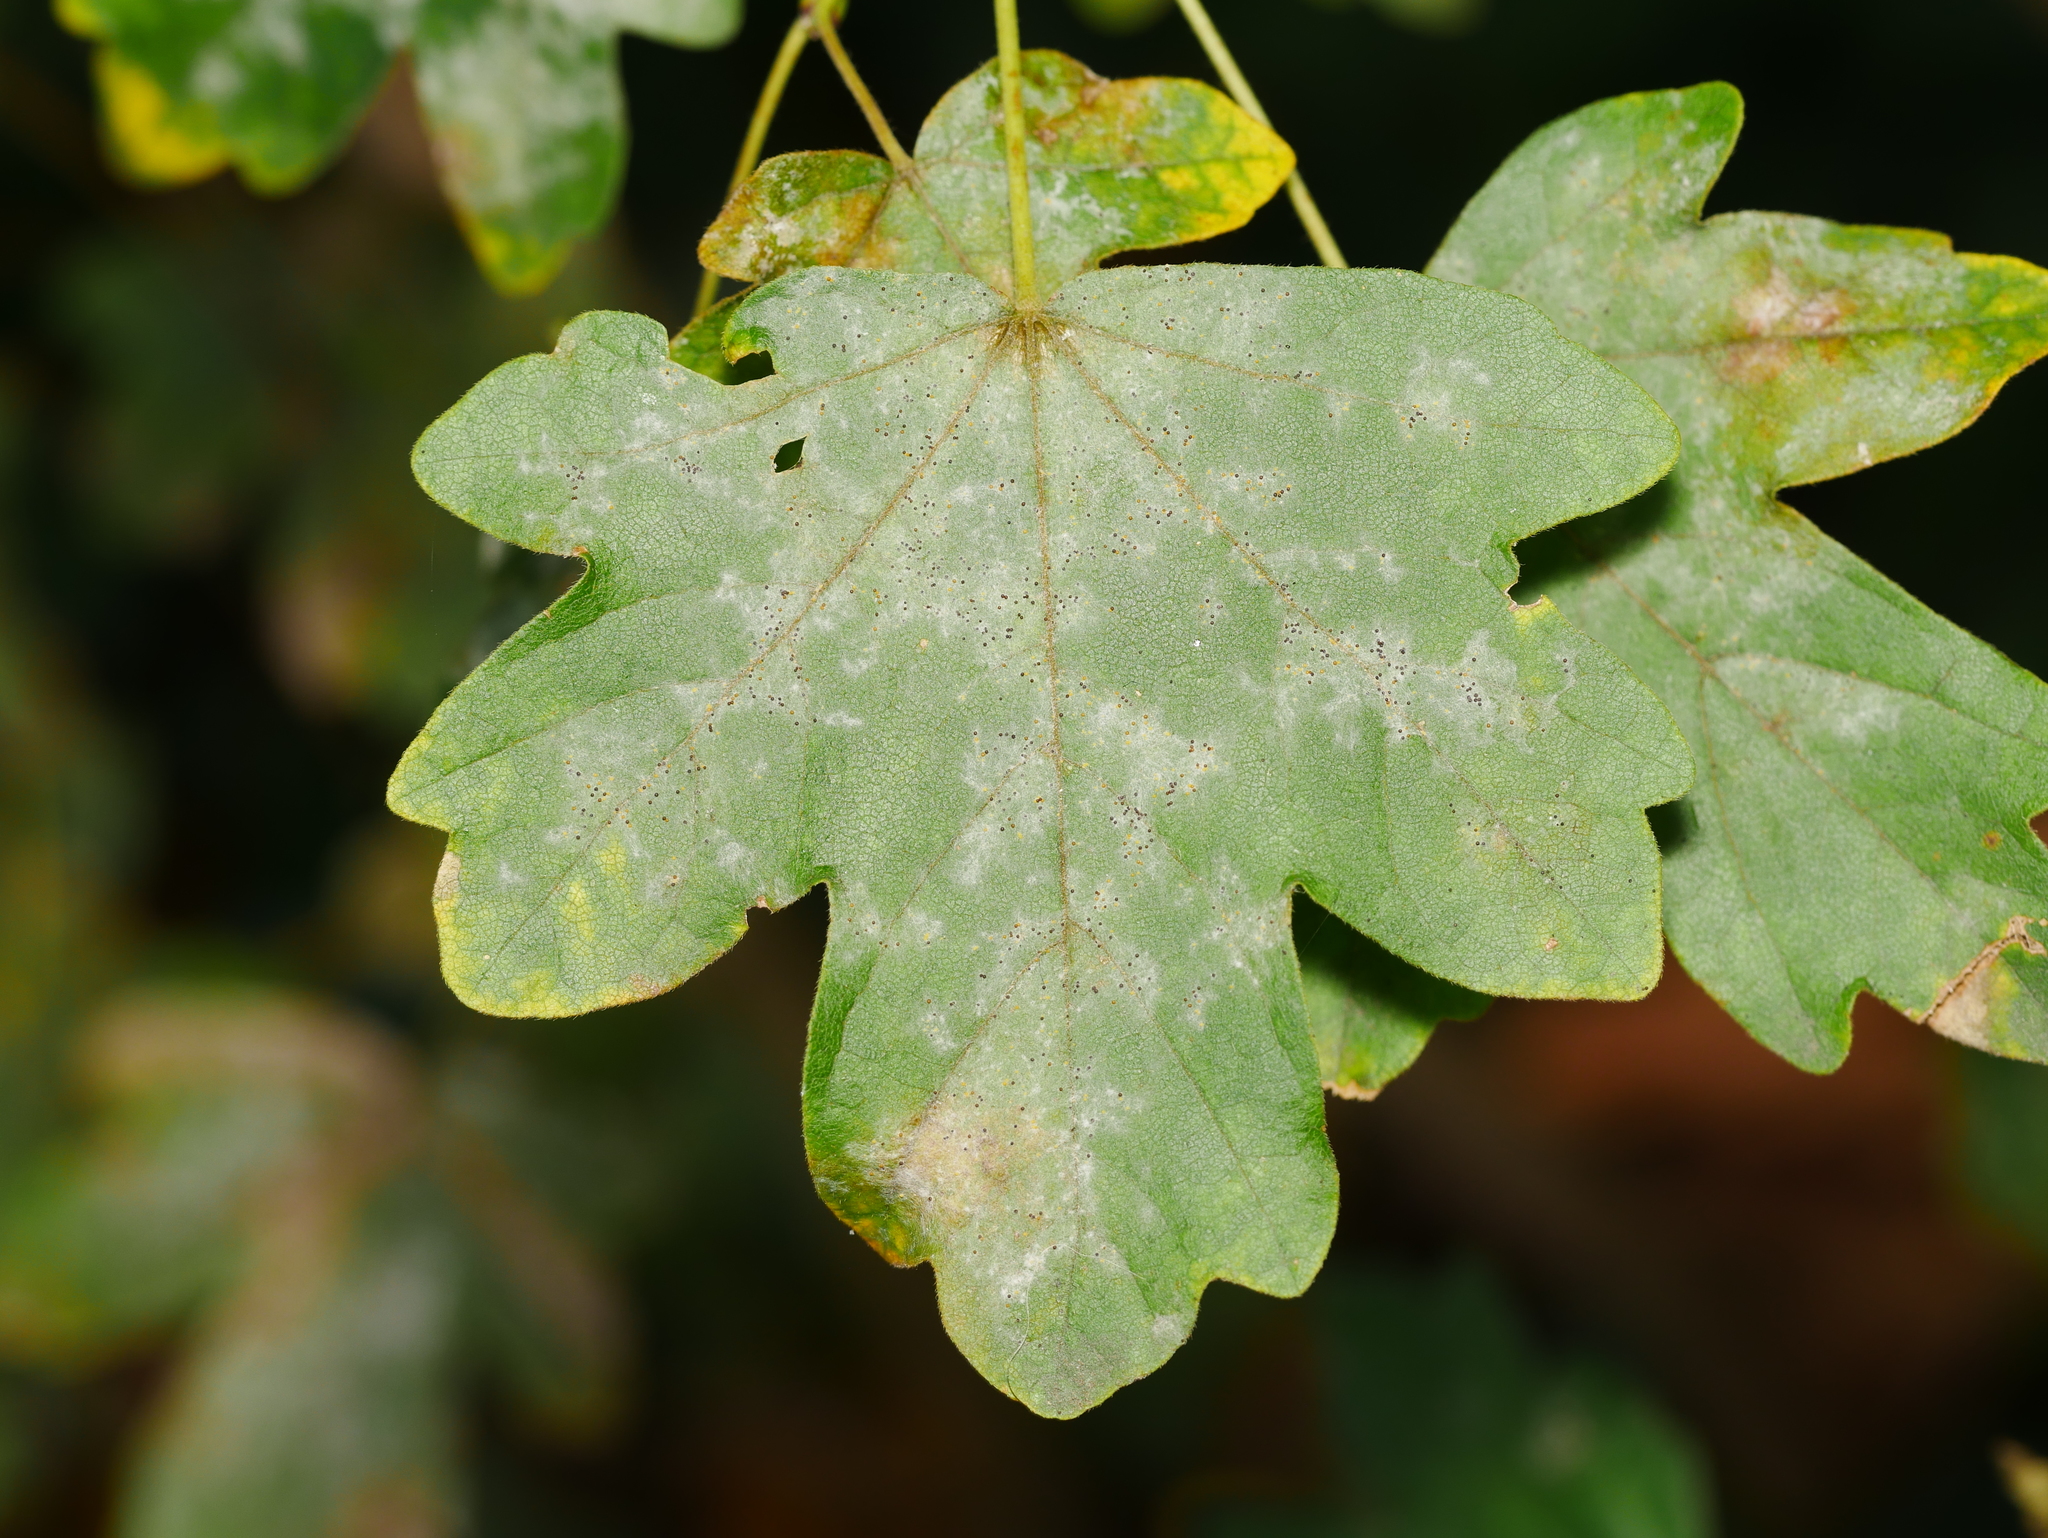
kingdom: Plantae
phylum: Tracheophyta
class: Magnoliopsida
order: Sapindales
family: Sapindaceae
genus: Acer
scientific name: Acer campestre
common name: Field maple
